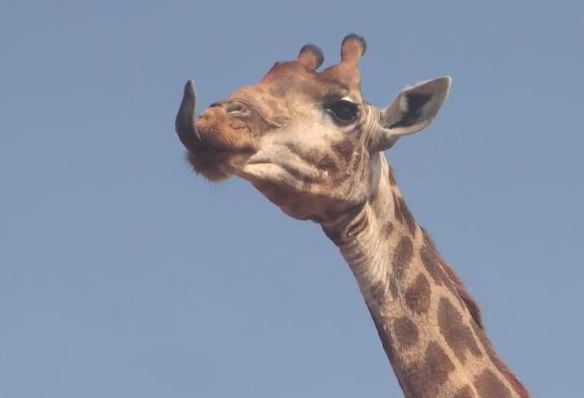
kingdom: Animalia
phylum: Chordata
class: Mammalia
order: Artiodactyla
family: Giraffidae
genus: Giraffa
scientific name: Giraffa giraffa
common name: Southern giraffe
